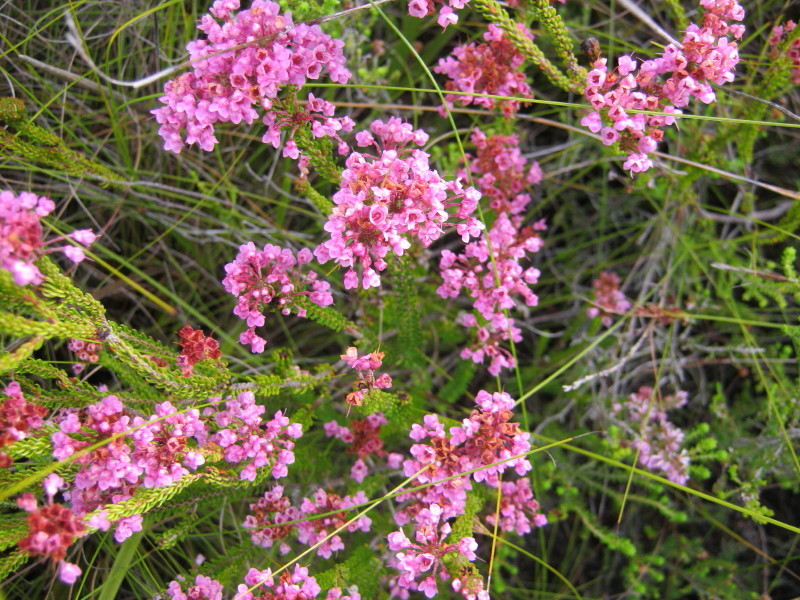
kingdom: Plantae
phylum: Tracheophyta
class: Magnoliopsida
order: Ericales
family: Ericaceae
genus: Erica
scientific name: Erica seriphiifolia
